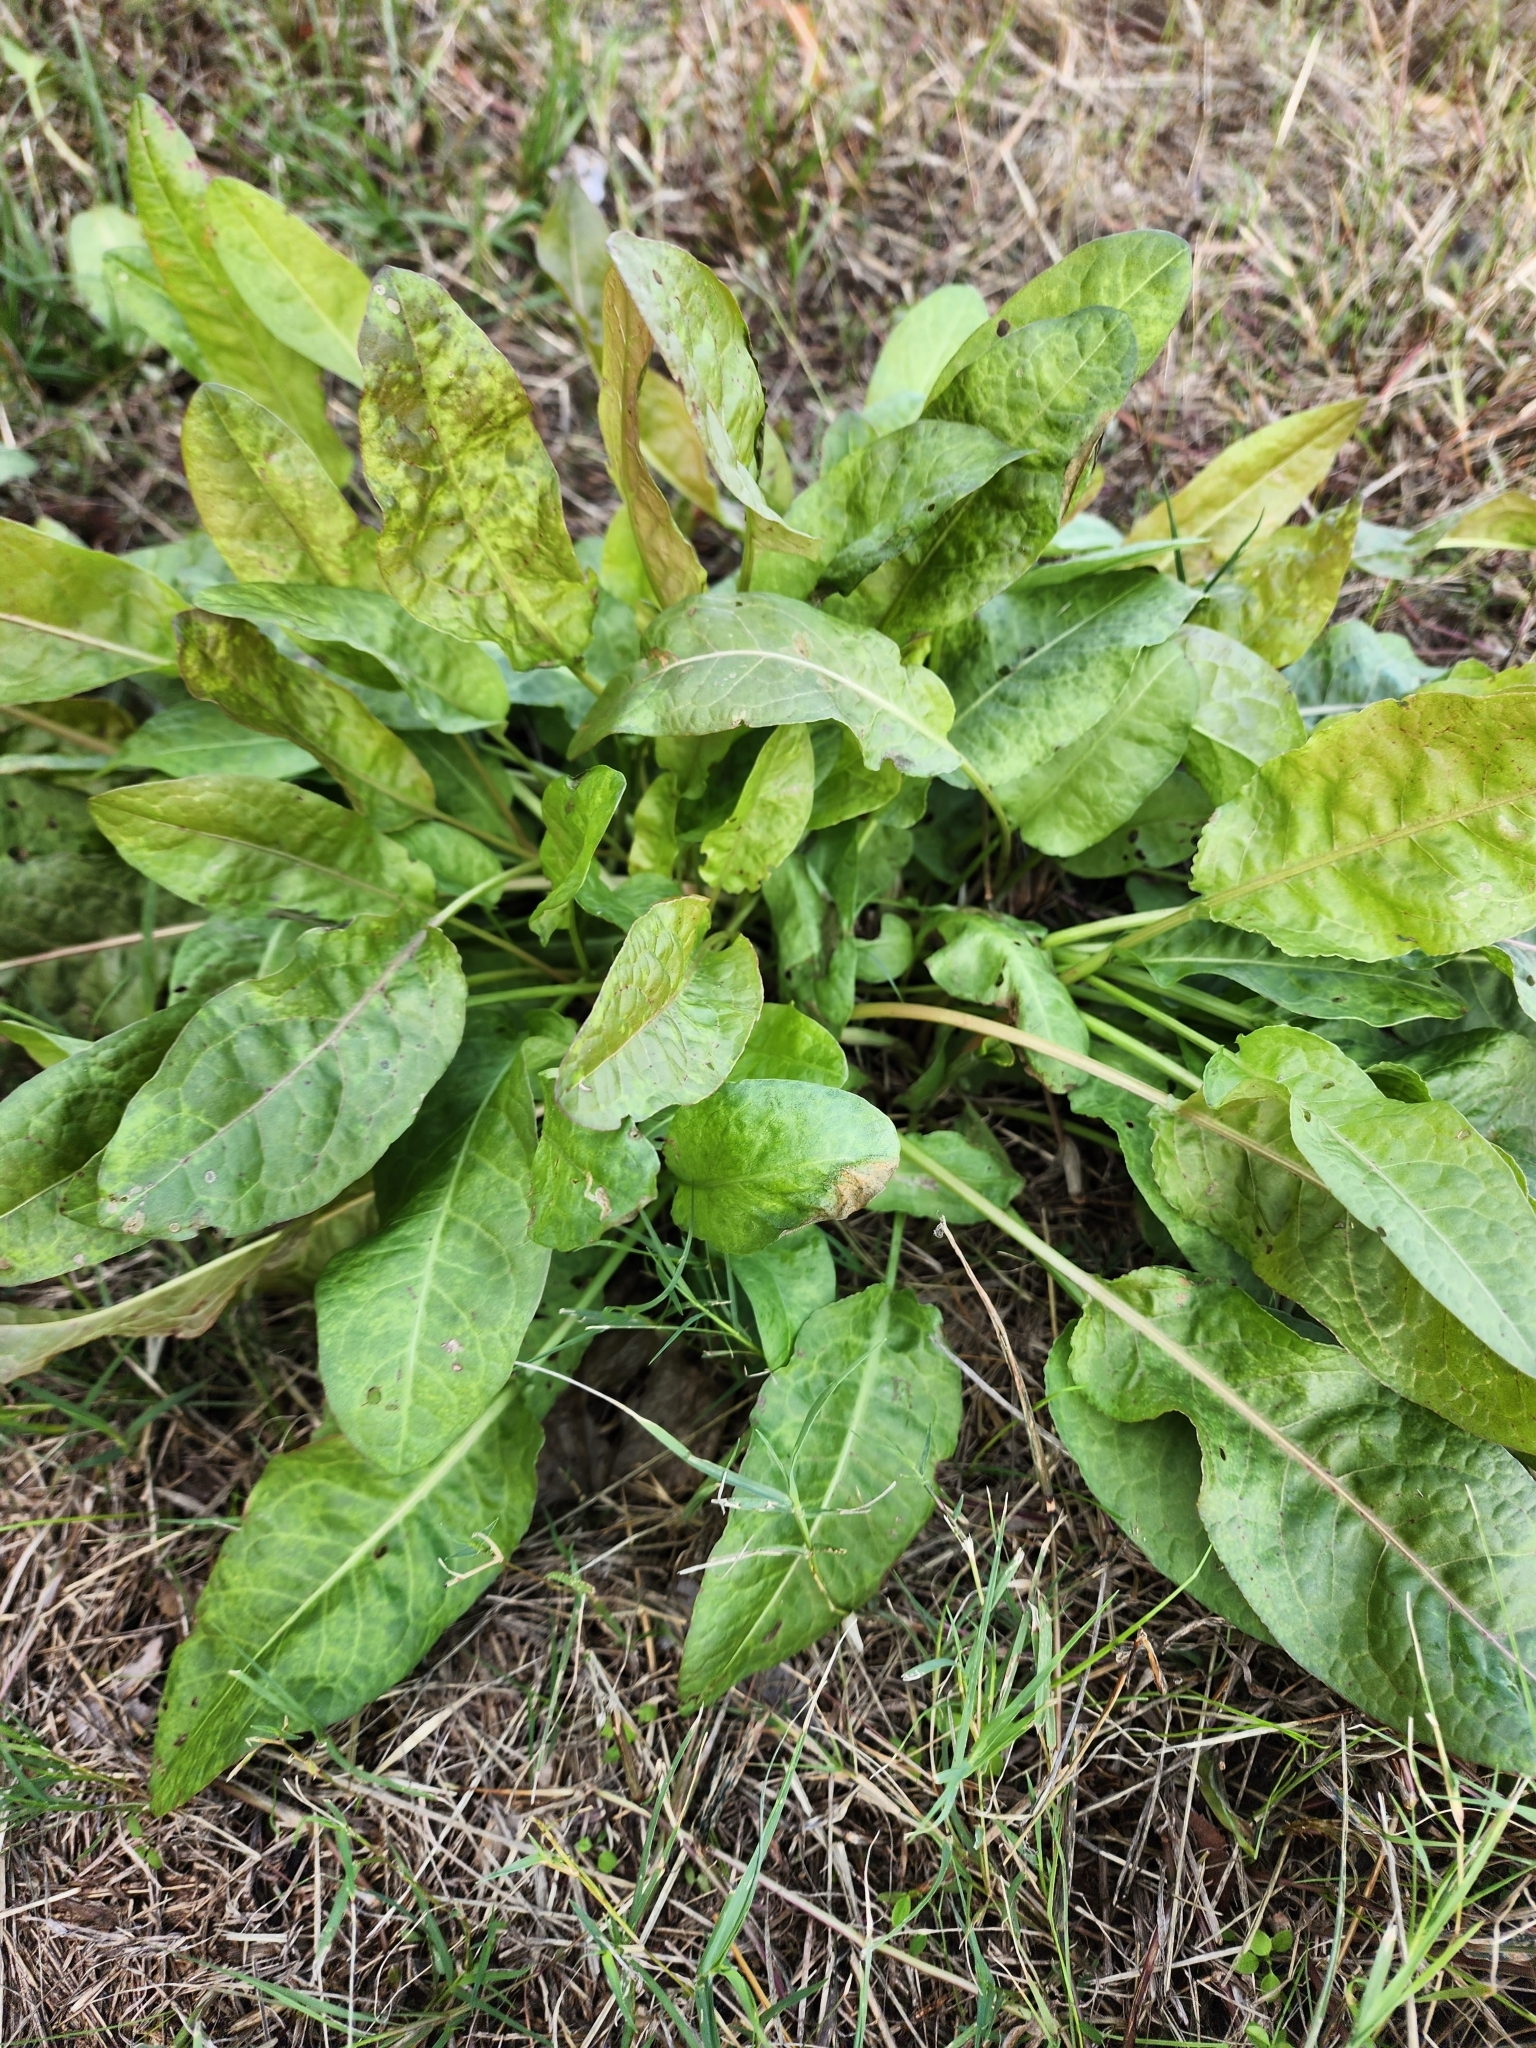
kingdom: Plantae
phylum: Tracheophyta
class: Magnoliopsida
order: Caryophyllales
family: Polygonaceae
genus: Rumex
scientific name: Rumex crispus
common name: Curled dock
